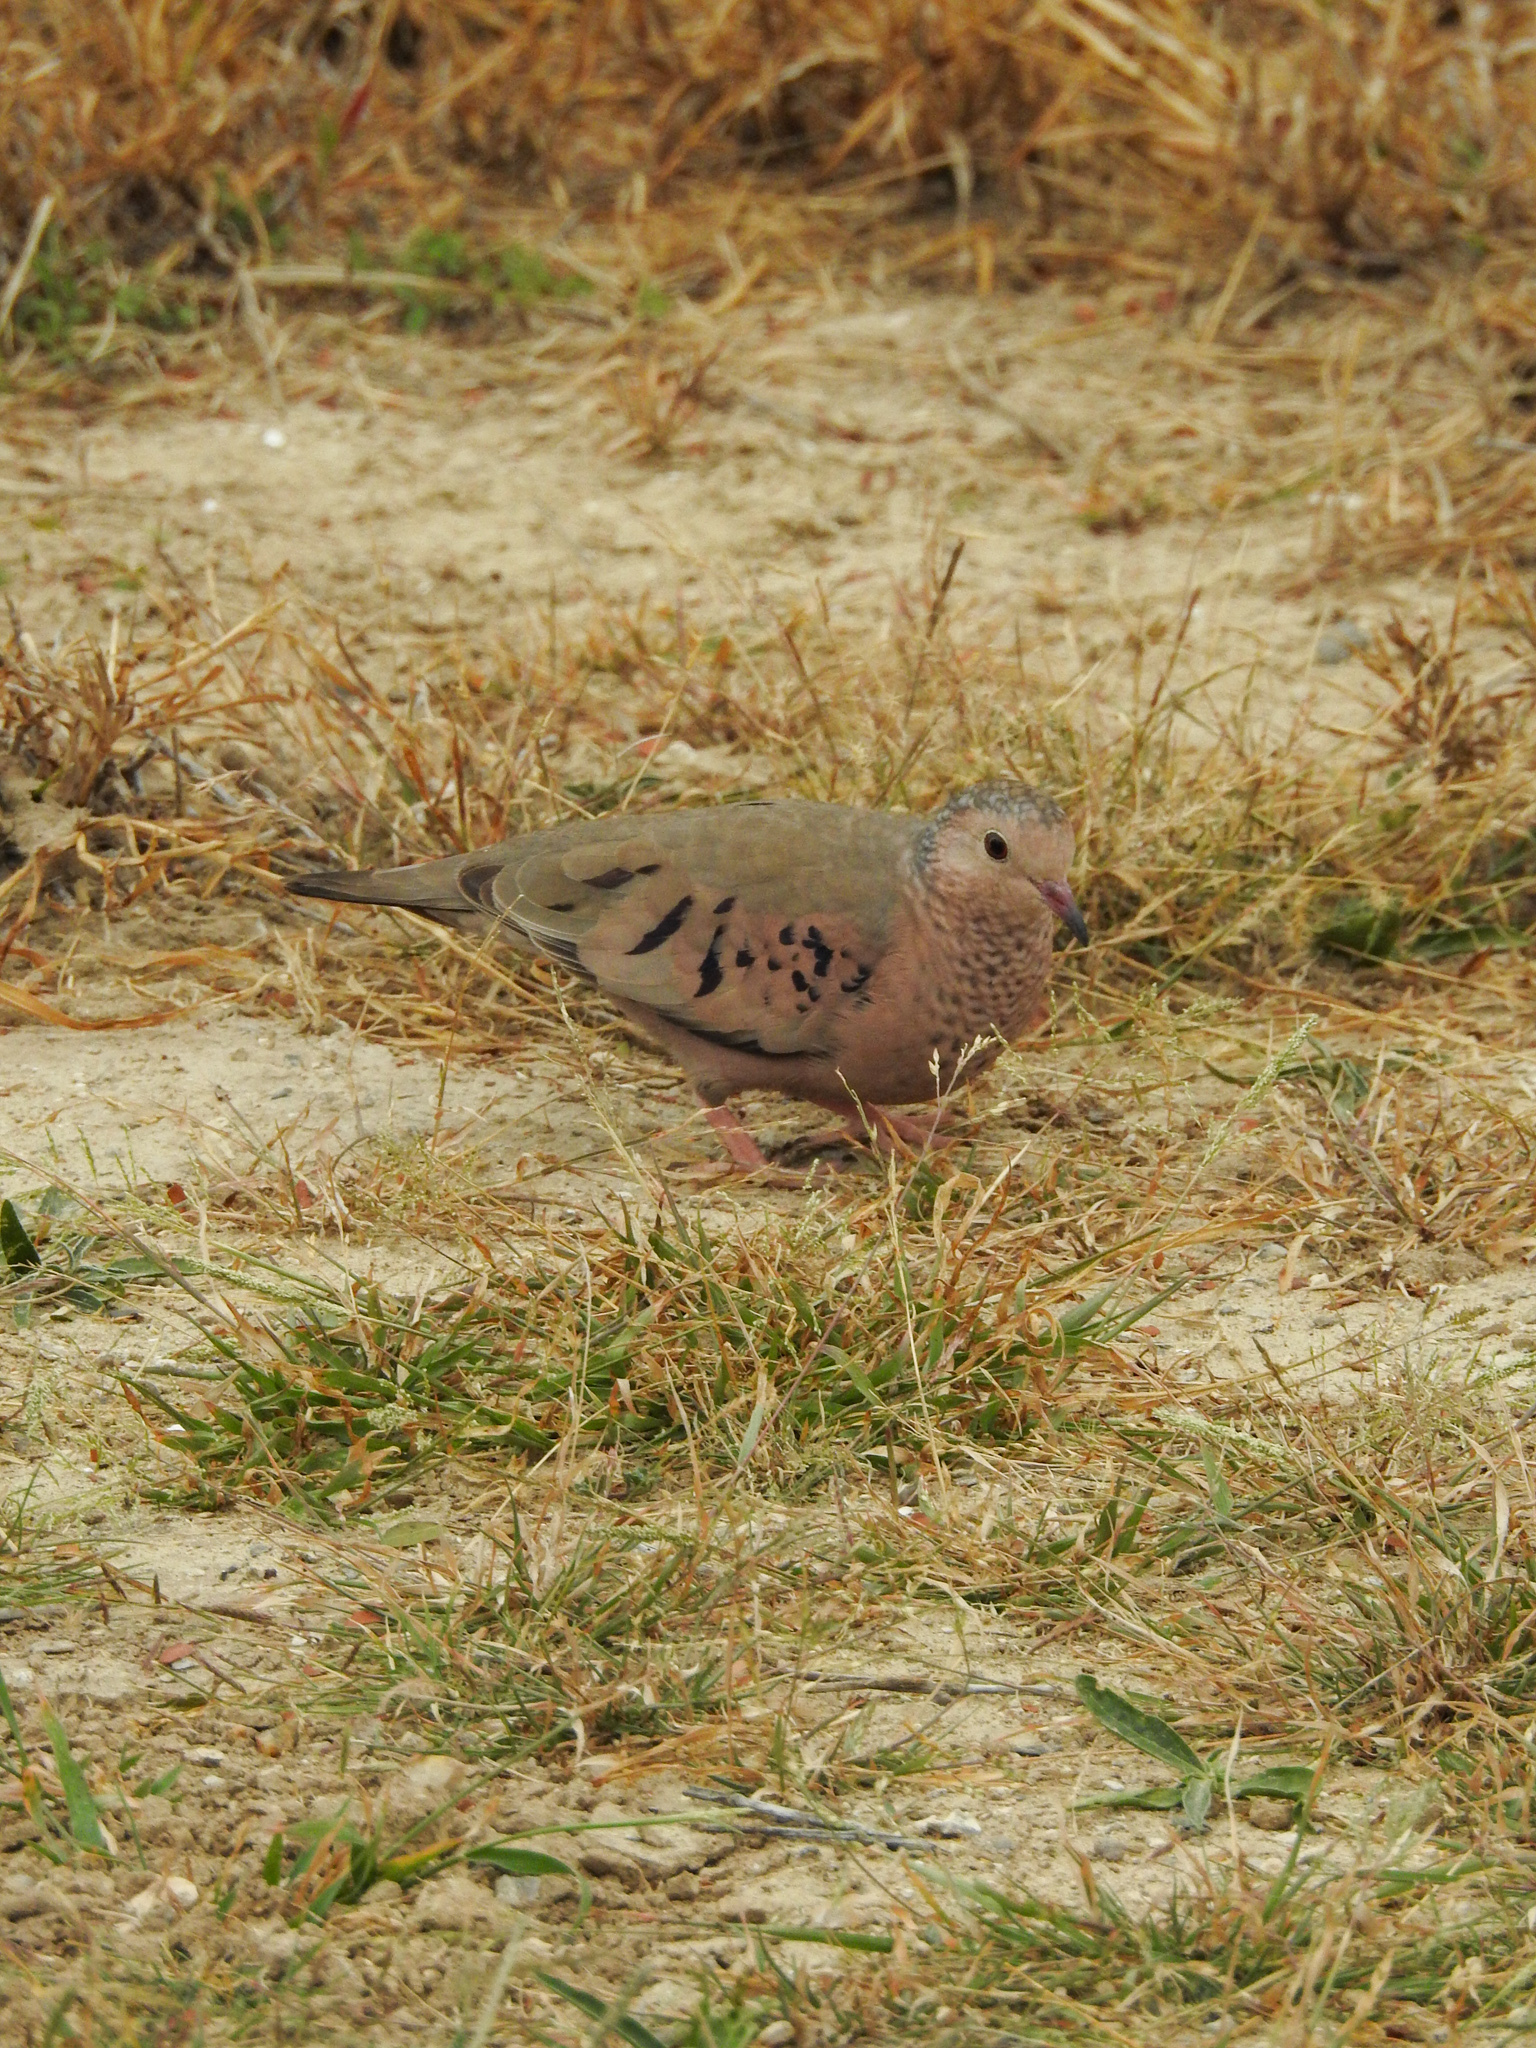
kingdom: Animalia
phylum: Chordata
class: Aves
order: Columbiformes
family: Columbidae
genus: Columbina
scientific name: Columbina passerina
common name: Common ground-dove
